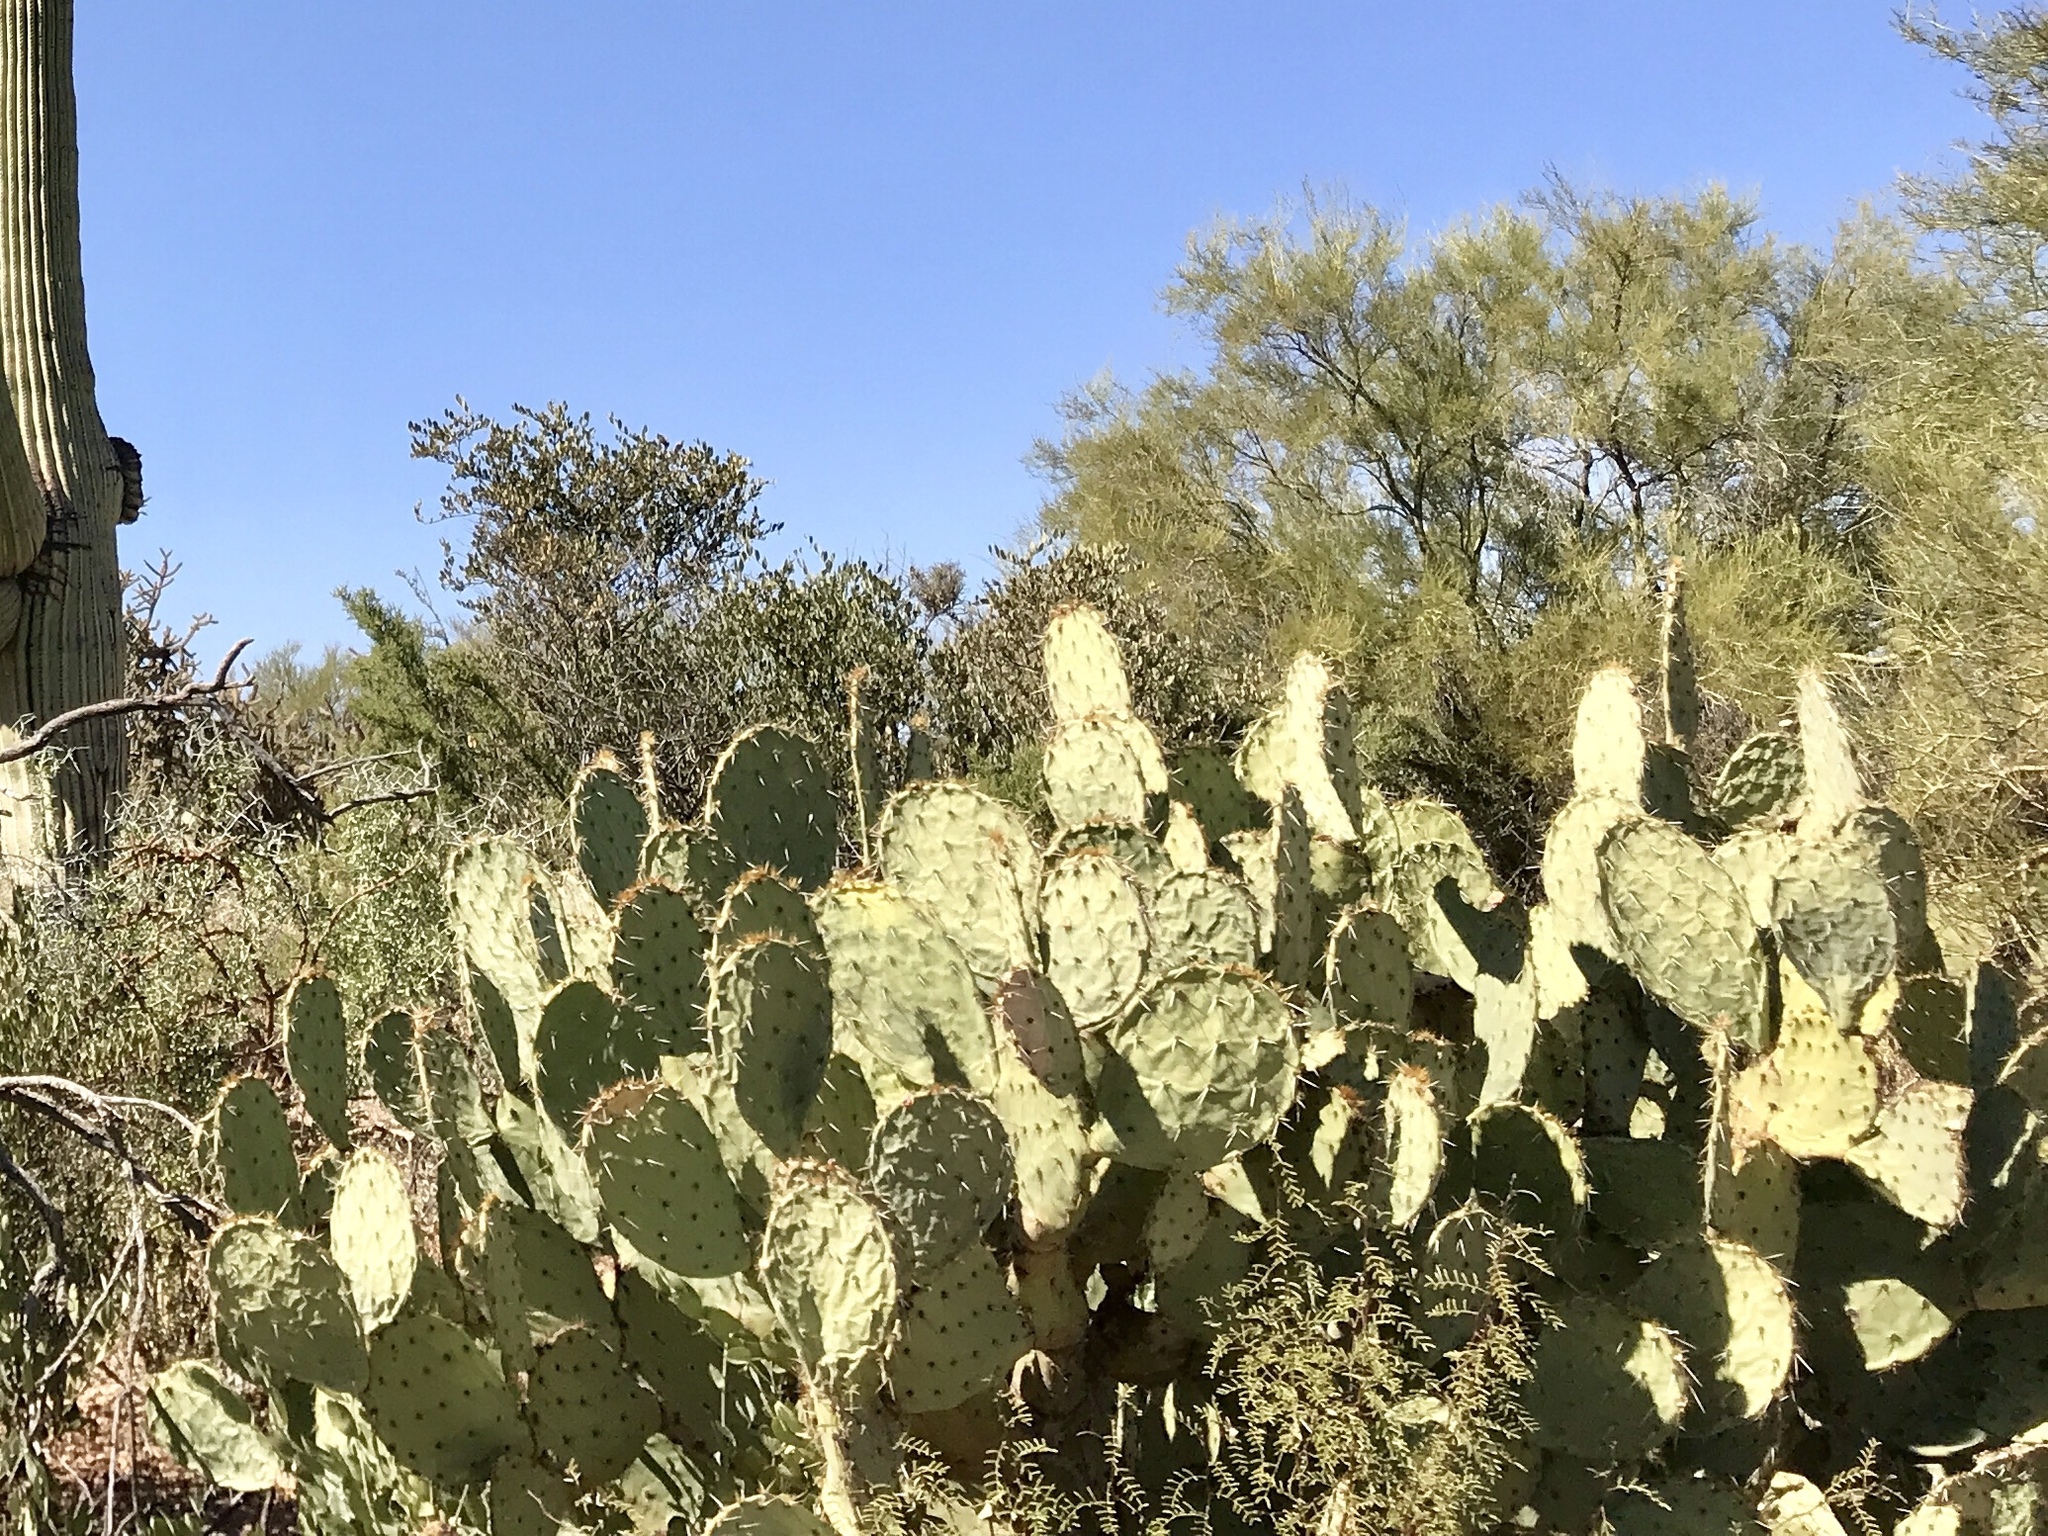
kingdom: Plantae
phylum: Tracheophyta
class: Magnoliopsida
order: Caryophyllales
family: Cactaceae
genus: Opuntia
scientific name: Opuntia engelmannii
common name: Cactus-apple
